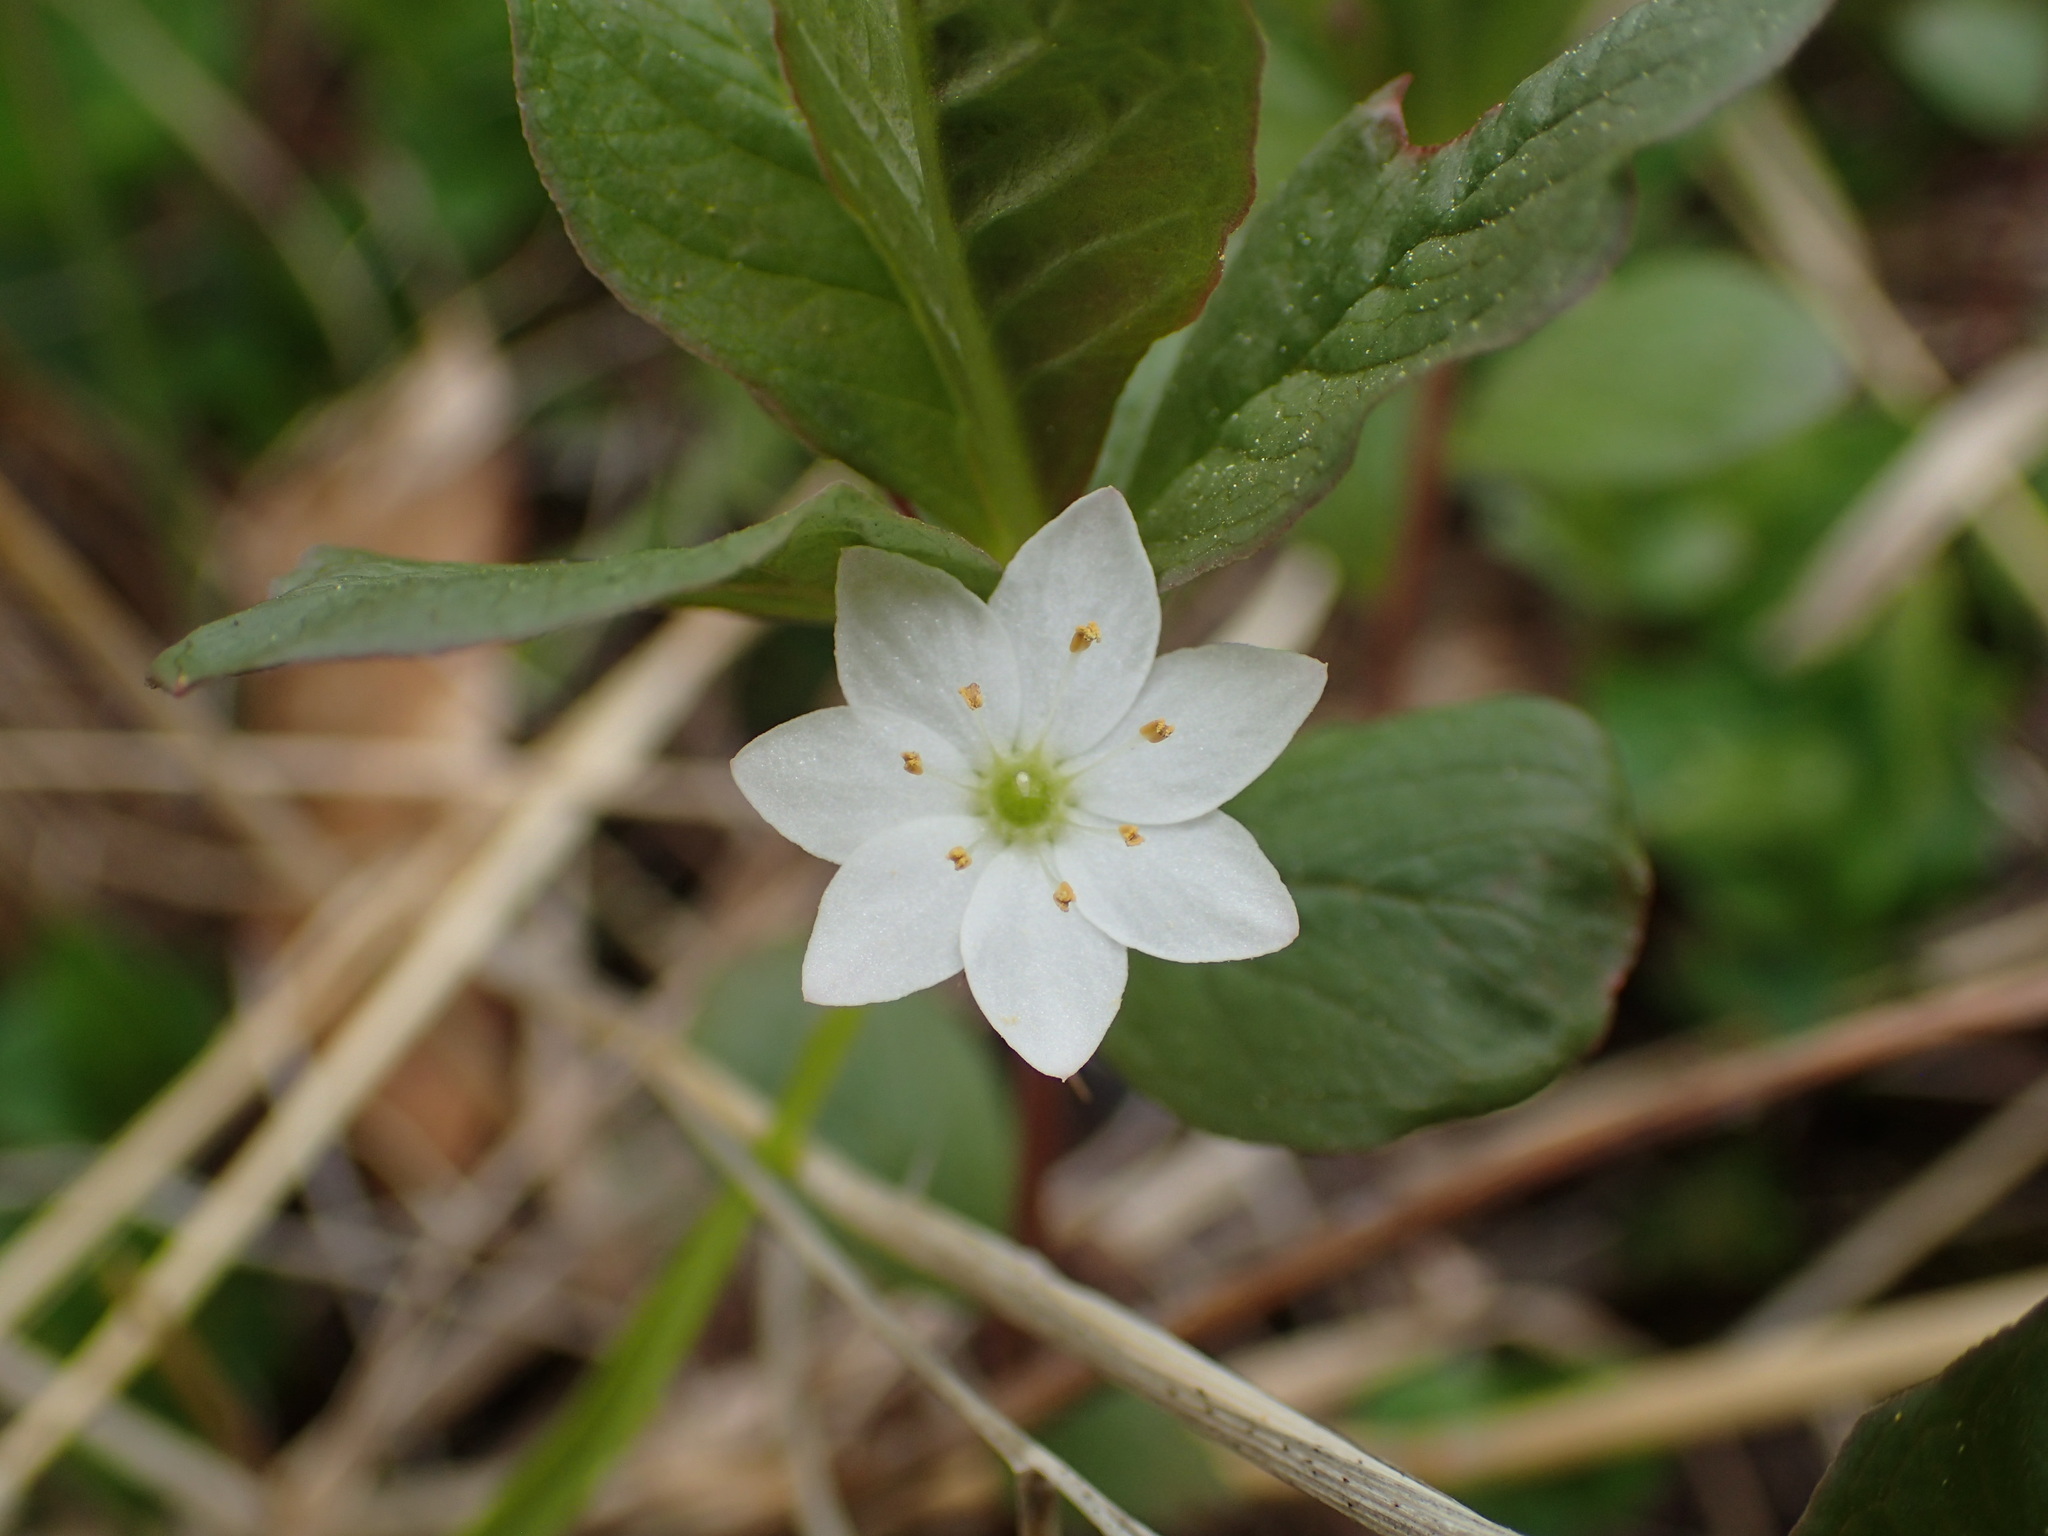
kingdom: Plantae
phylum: Tracheophyta
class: Magnoliopsida
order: Ericales
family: Primulaceae
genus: Lysimachia
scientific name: Lysimachia europaea
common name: Arctic starflower
